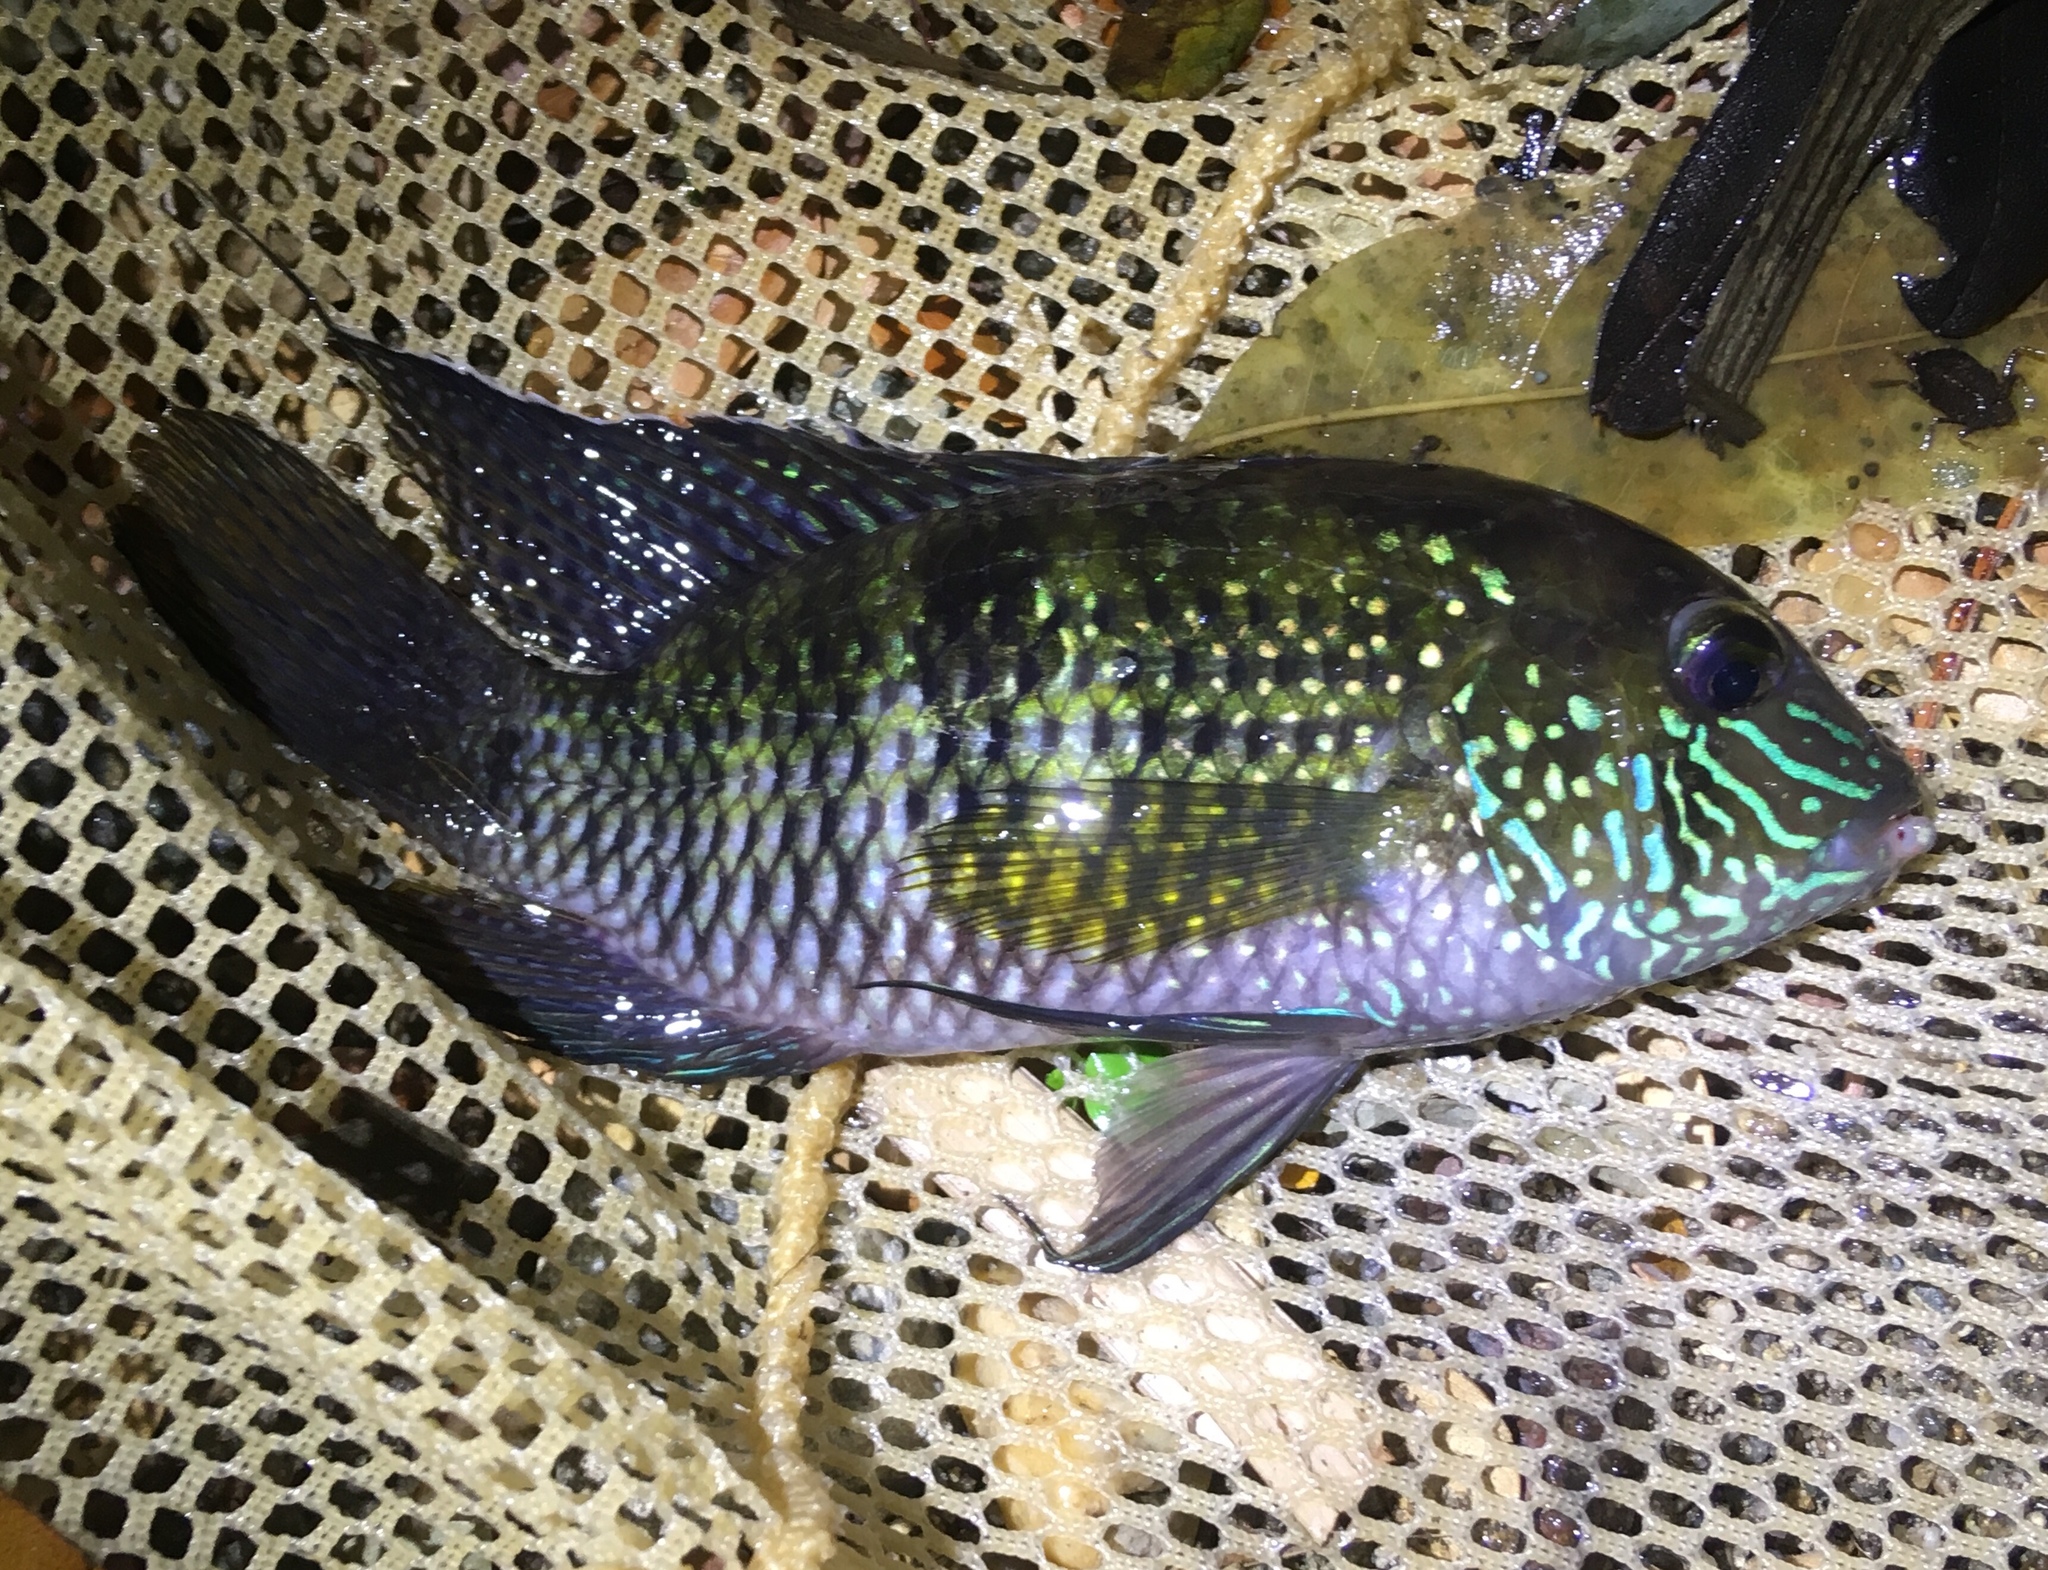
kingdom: Animalia
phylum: Chordata
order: Perciformes
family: Cichlidae
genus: Andinoacara
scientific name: Andinoacara latifrons
